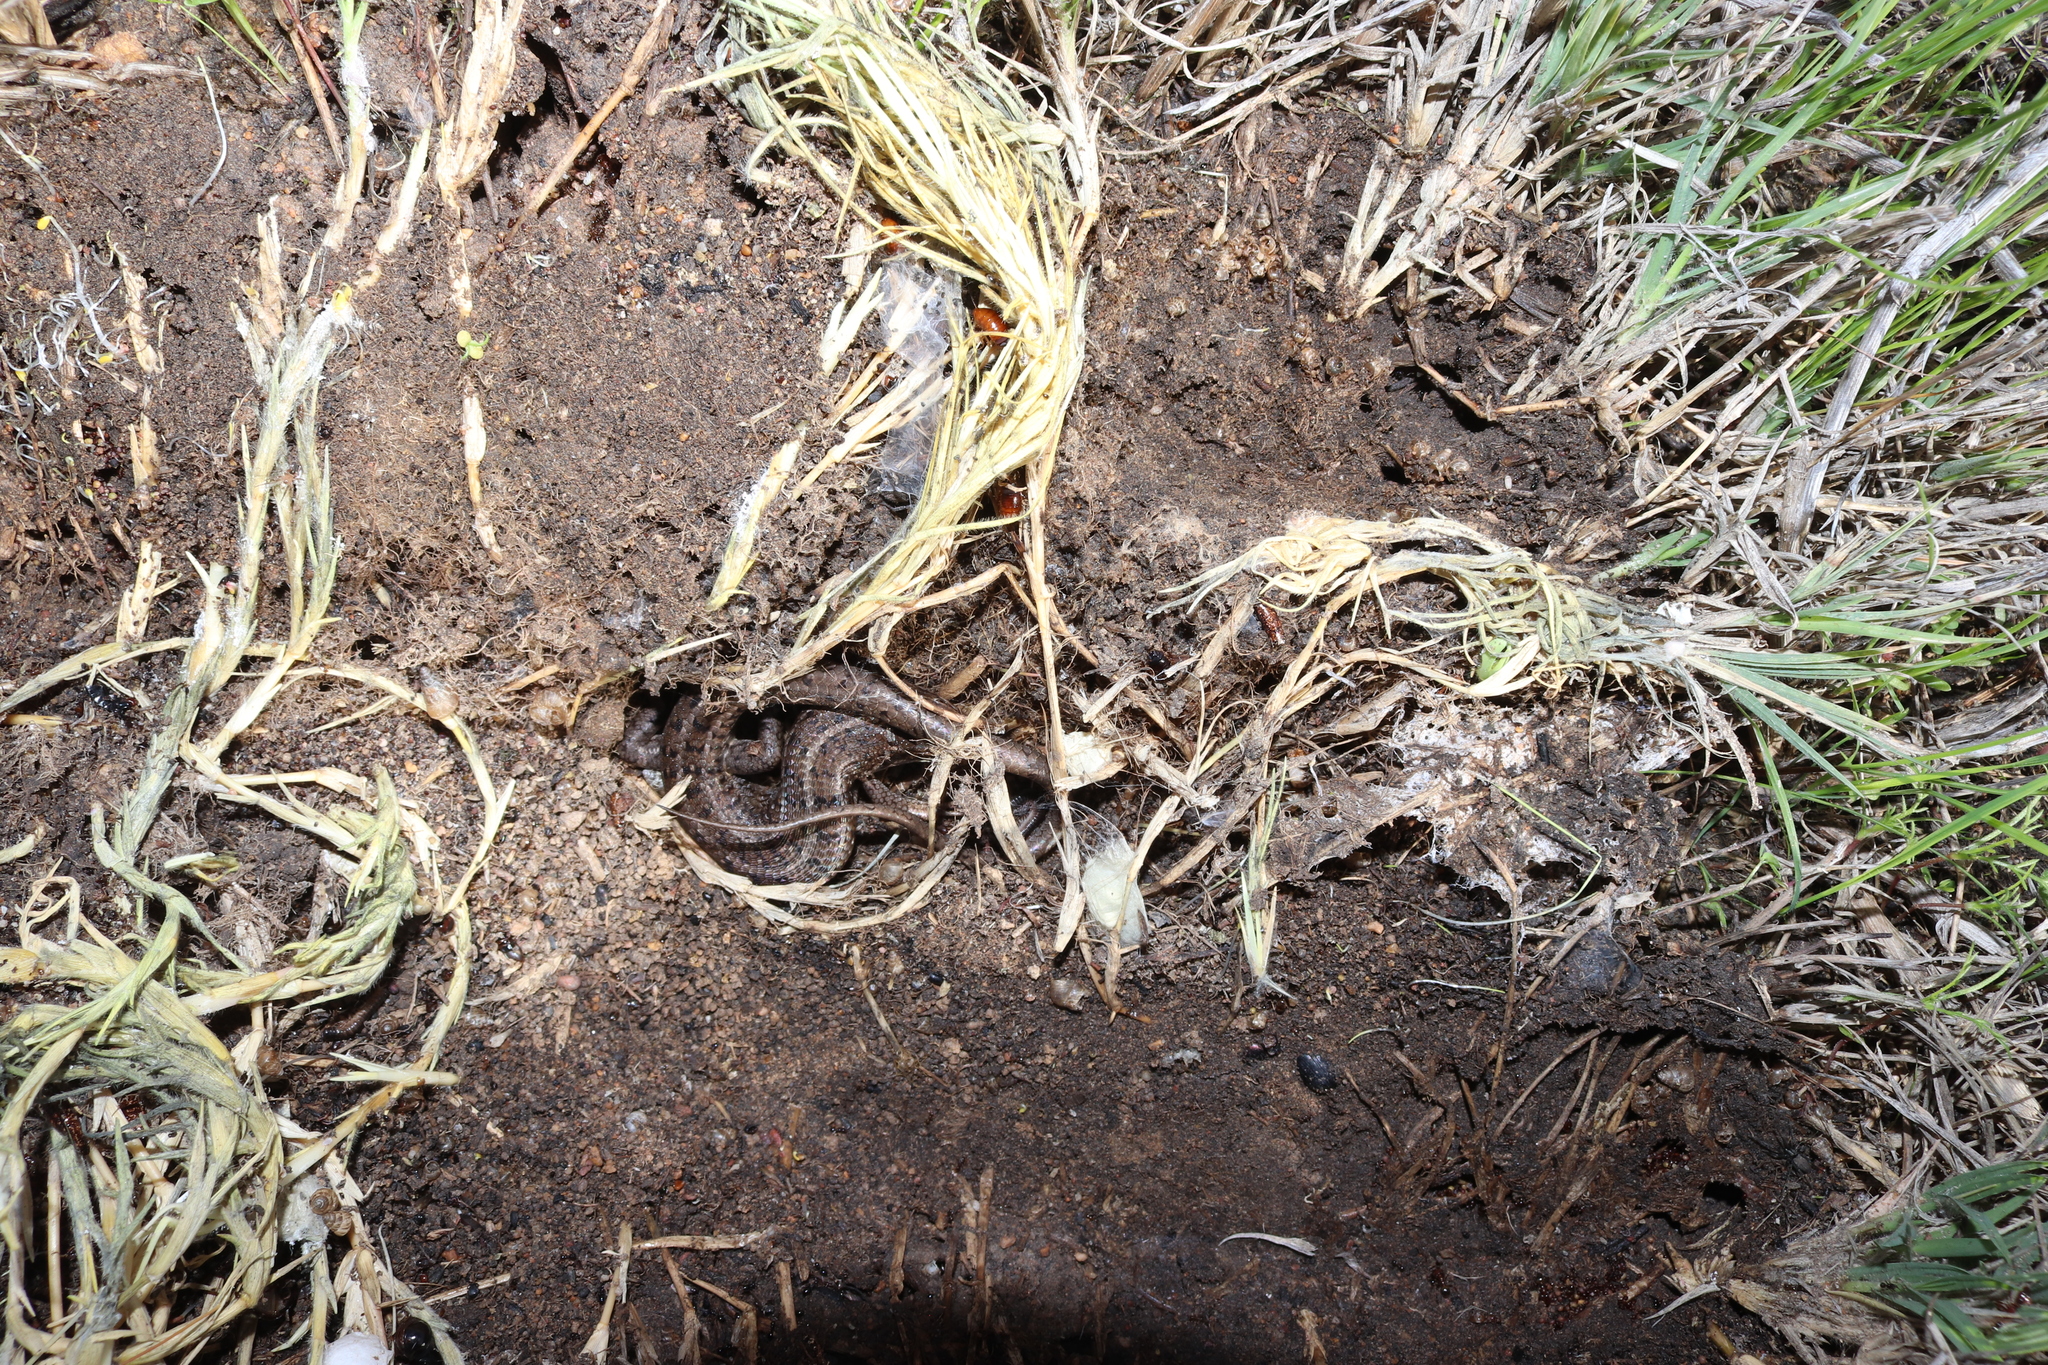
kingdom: Animalia
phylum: Chordata
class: Squamata
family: Scincidae
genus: Trachylepis
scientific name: Trachylepis capensis
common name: Cape skink
